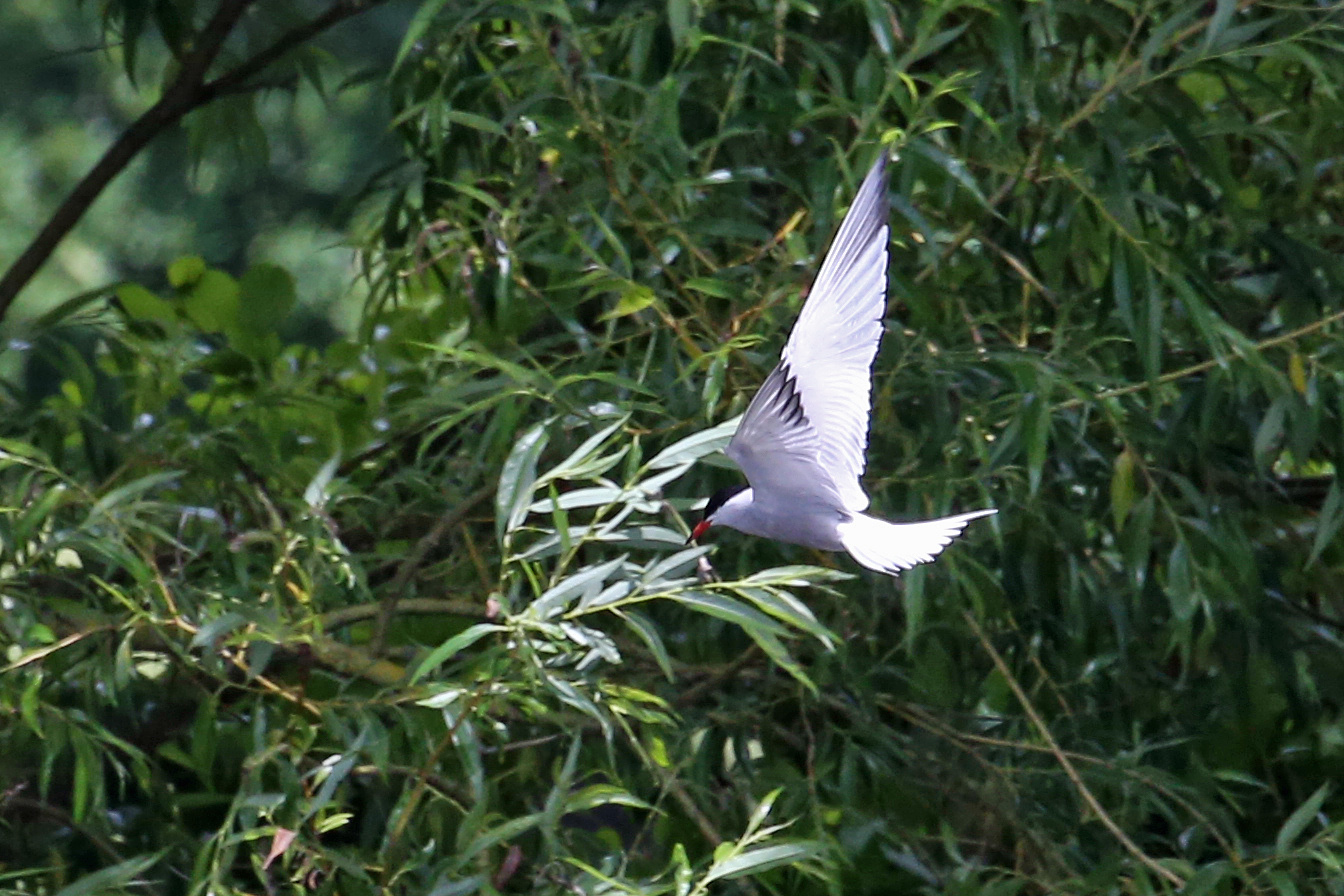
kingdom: Animalia
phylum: Chordata
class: Aves
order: Charadriiformes
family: Laridae
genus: Sterna
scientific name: Sterna hirundo
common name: Common tern
